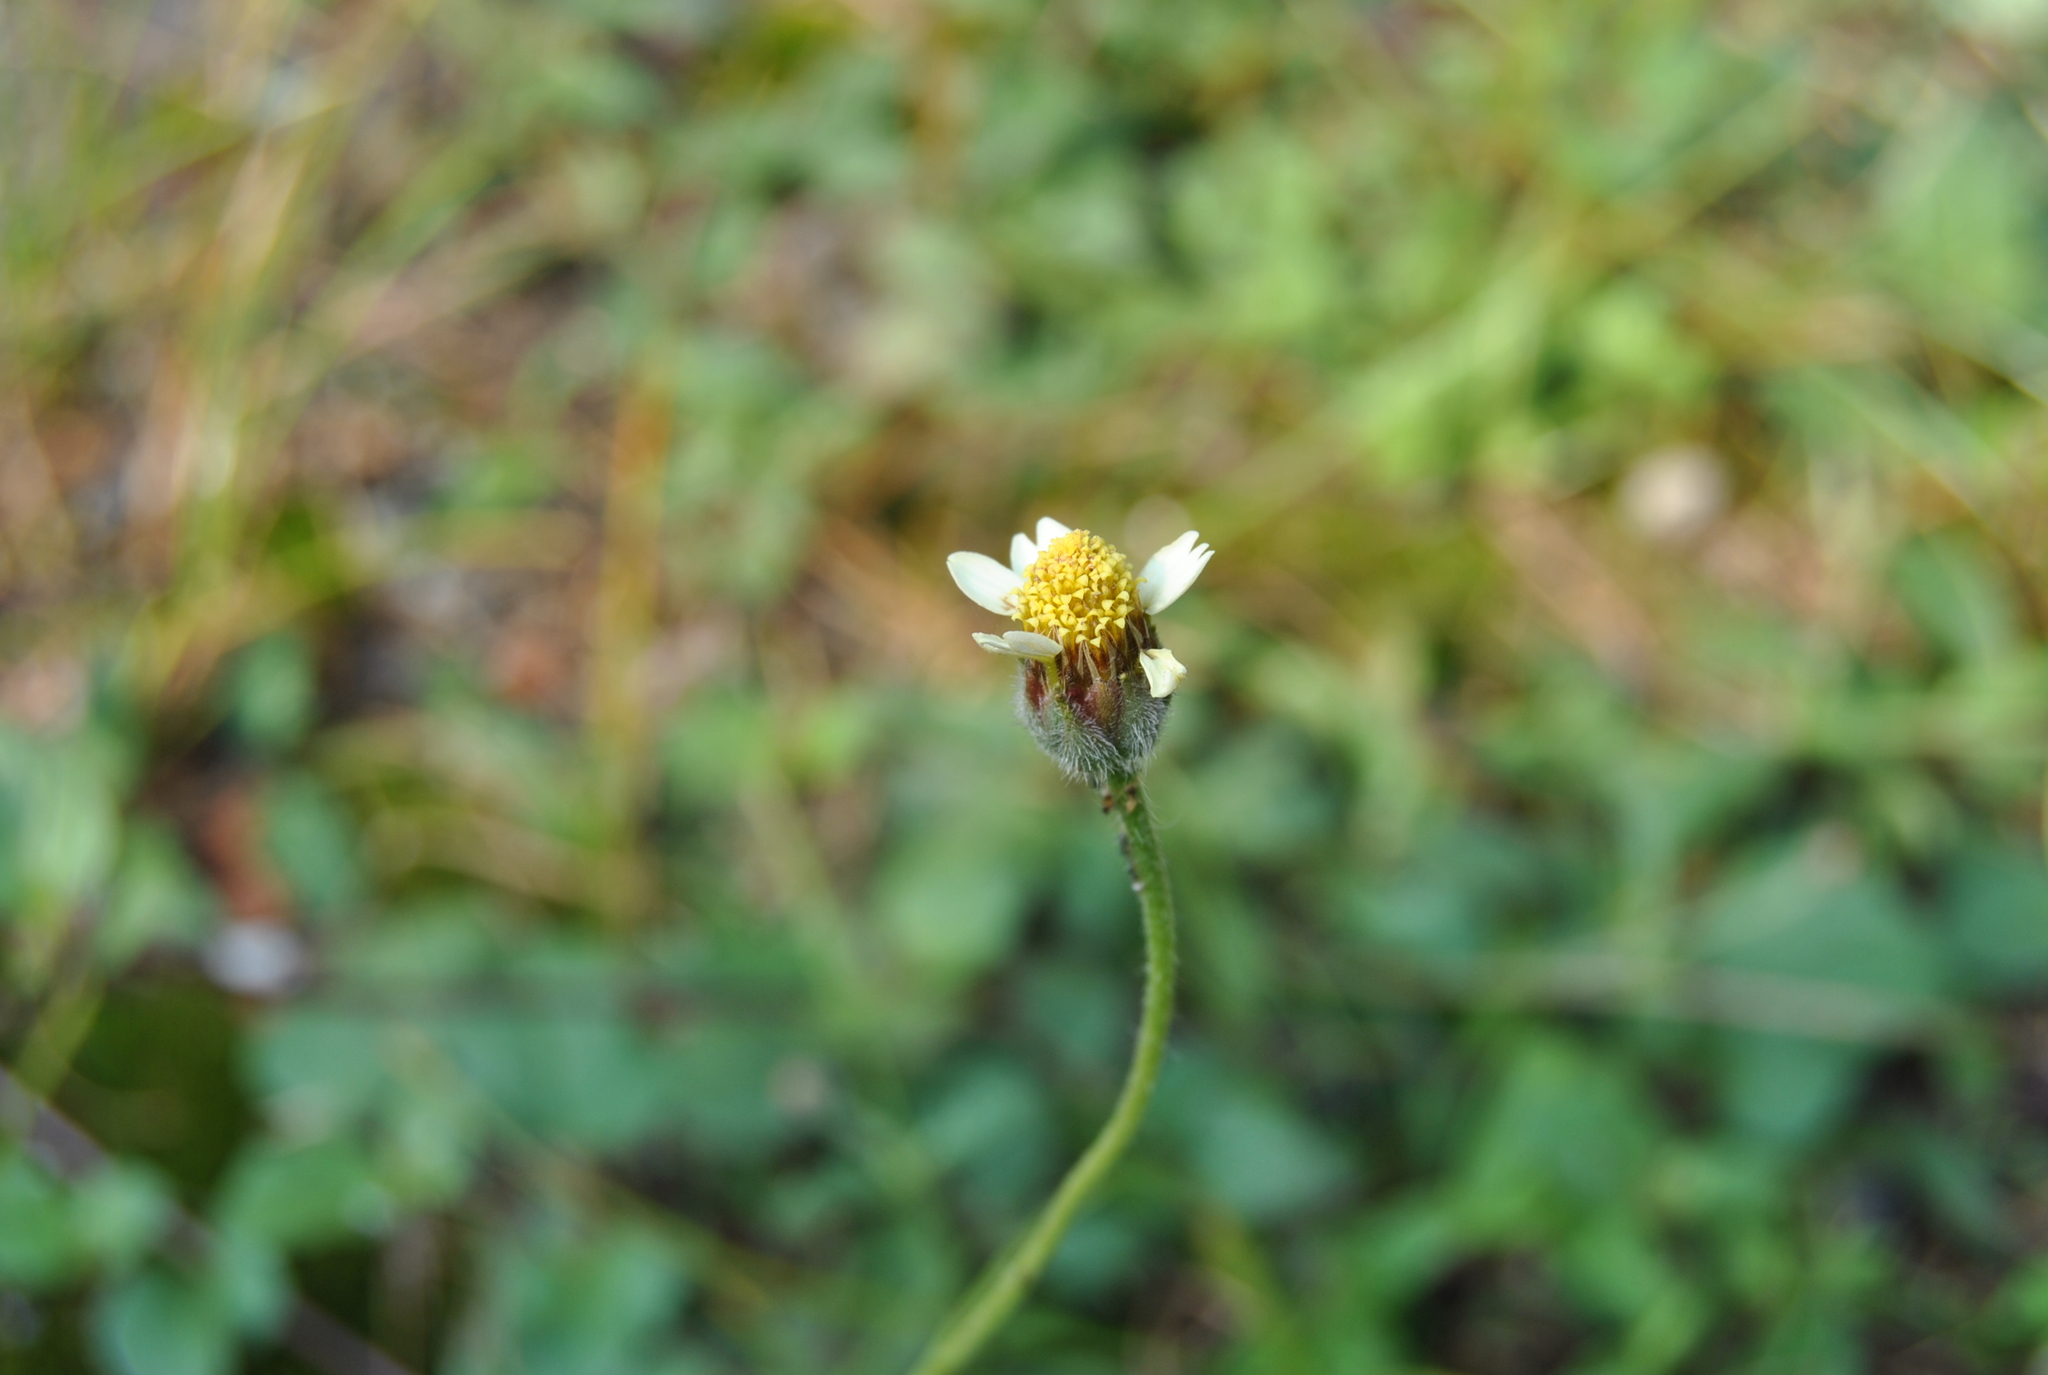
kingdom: Plantae
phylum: Tracheophyta
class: Magnoliopsida
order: Asterales
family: Asteraceae
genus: Tridax
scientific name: Tridax procumbens
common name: Coatbuttons
